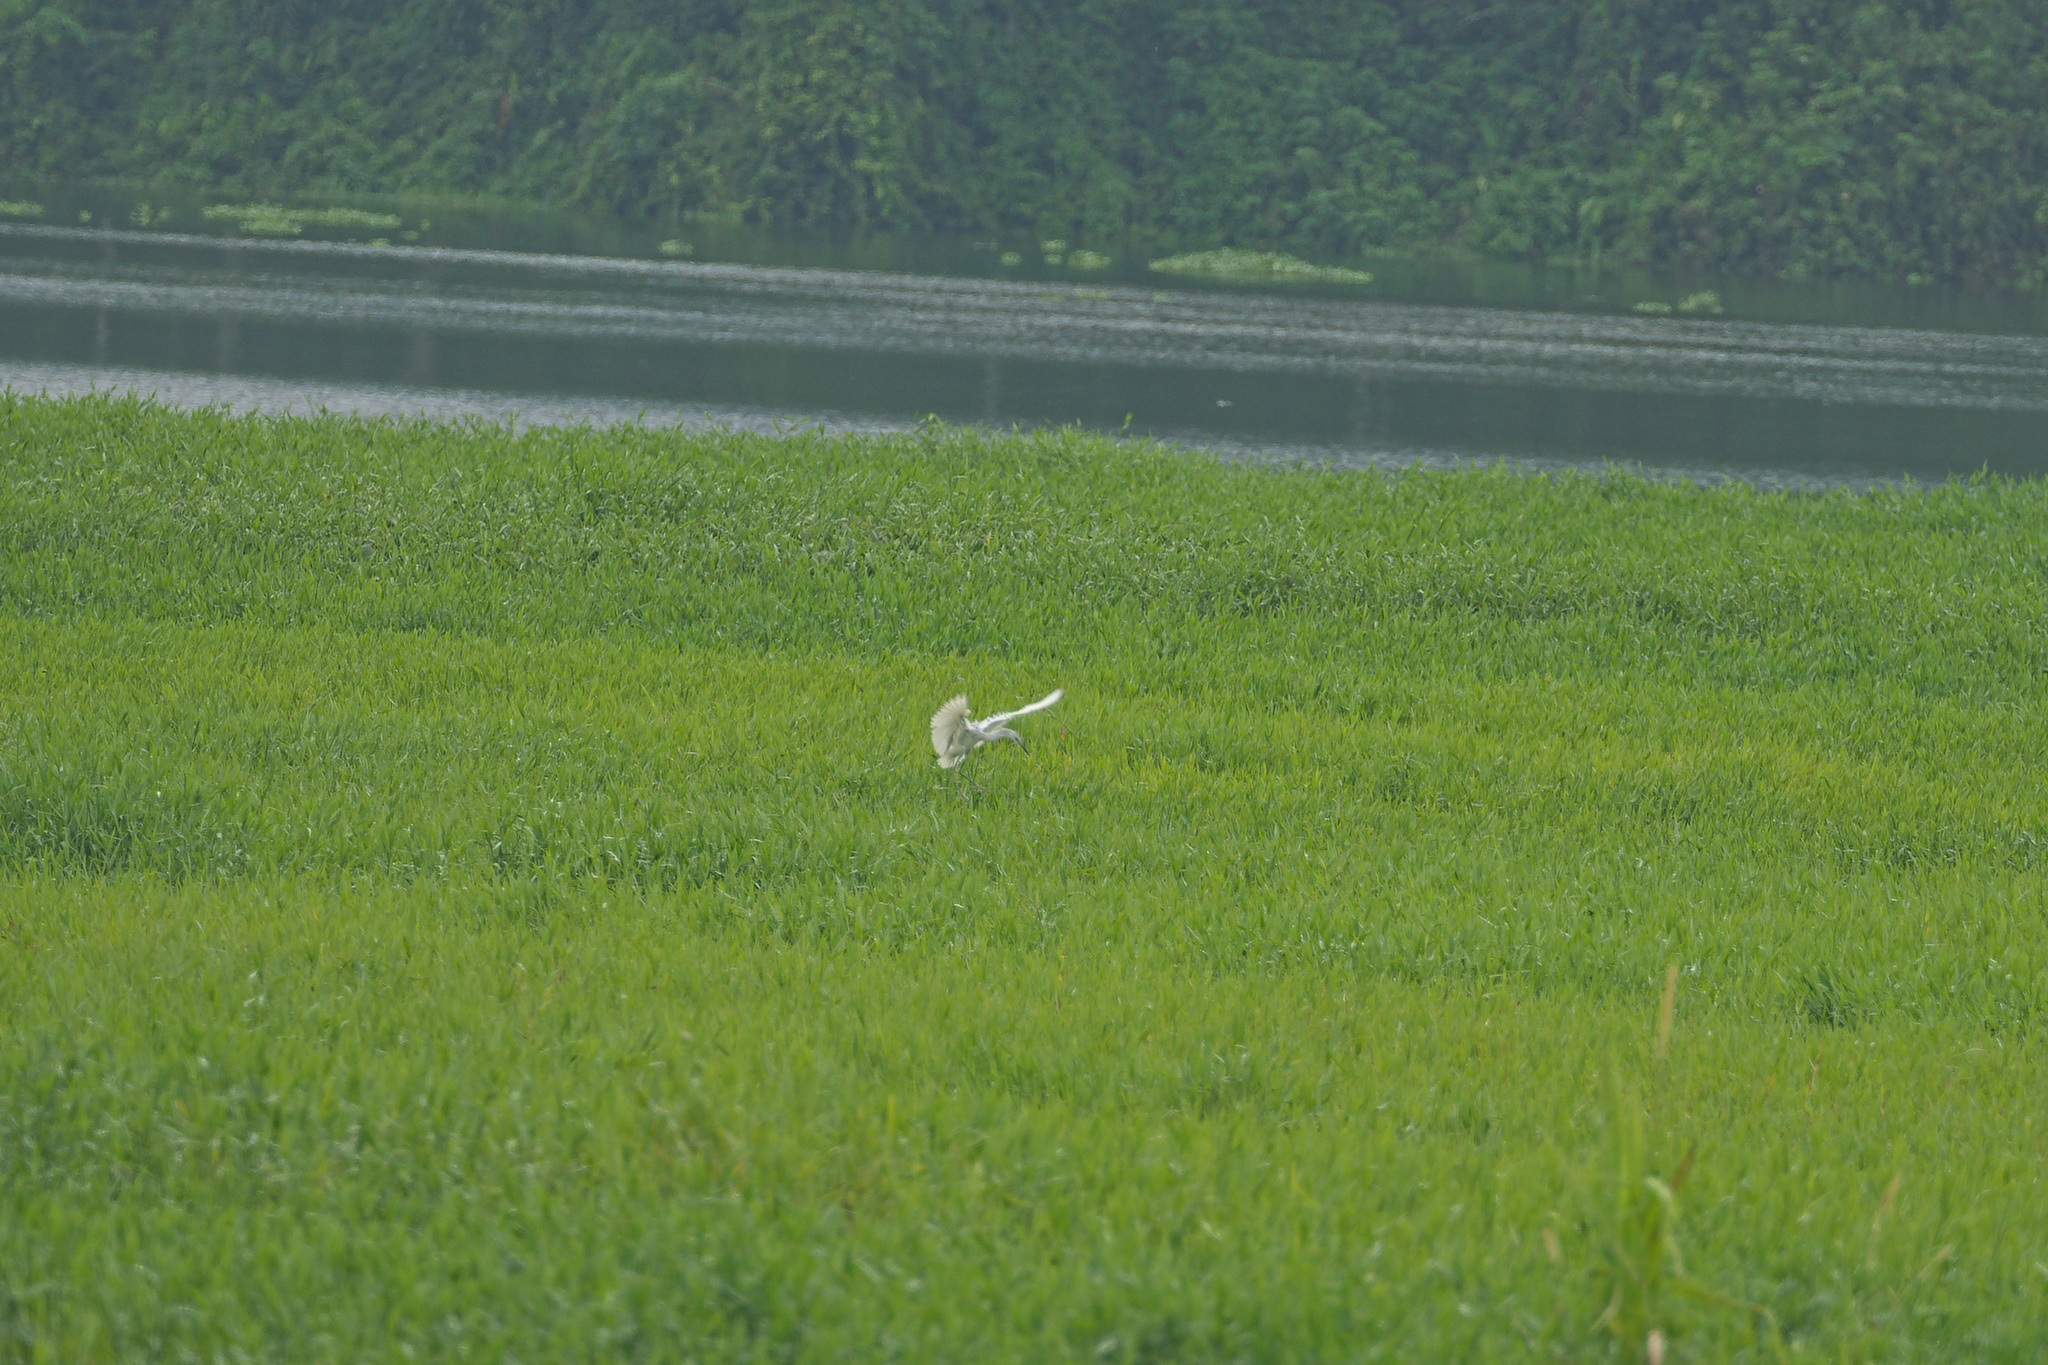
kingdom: Animalia
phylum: Chordata
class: Aves
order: Pelecaniformes
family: Ardeidae
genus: Egretta
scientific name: Egretta caerulea
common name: Little blue heron
